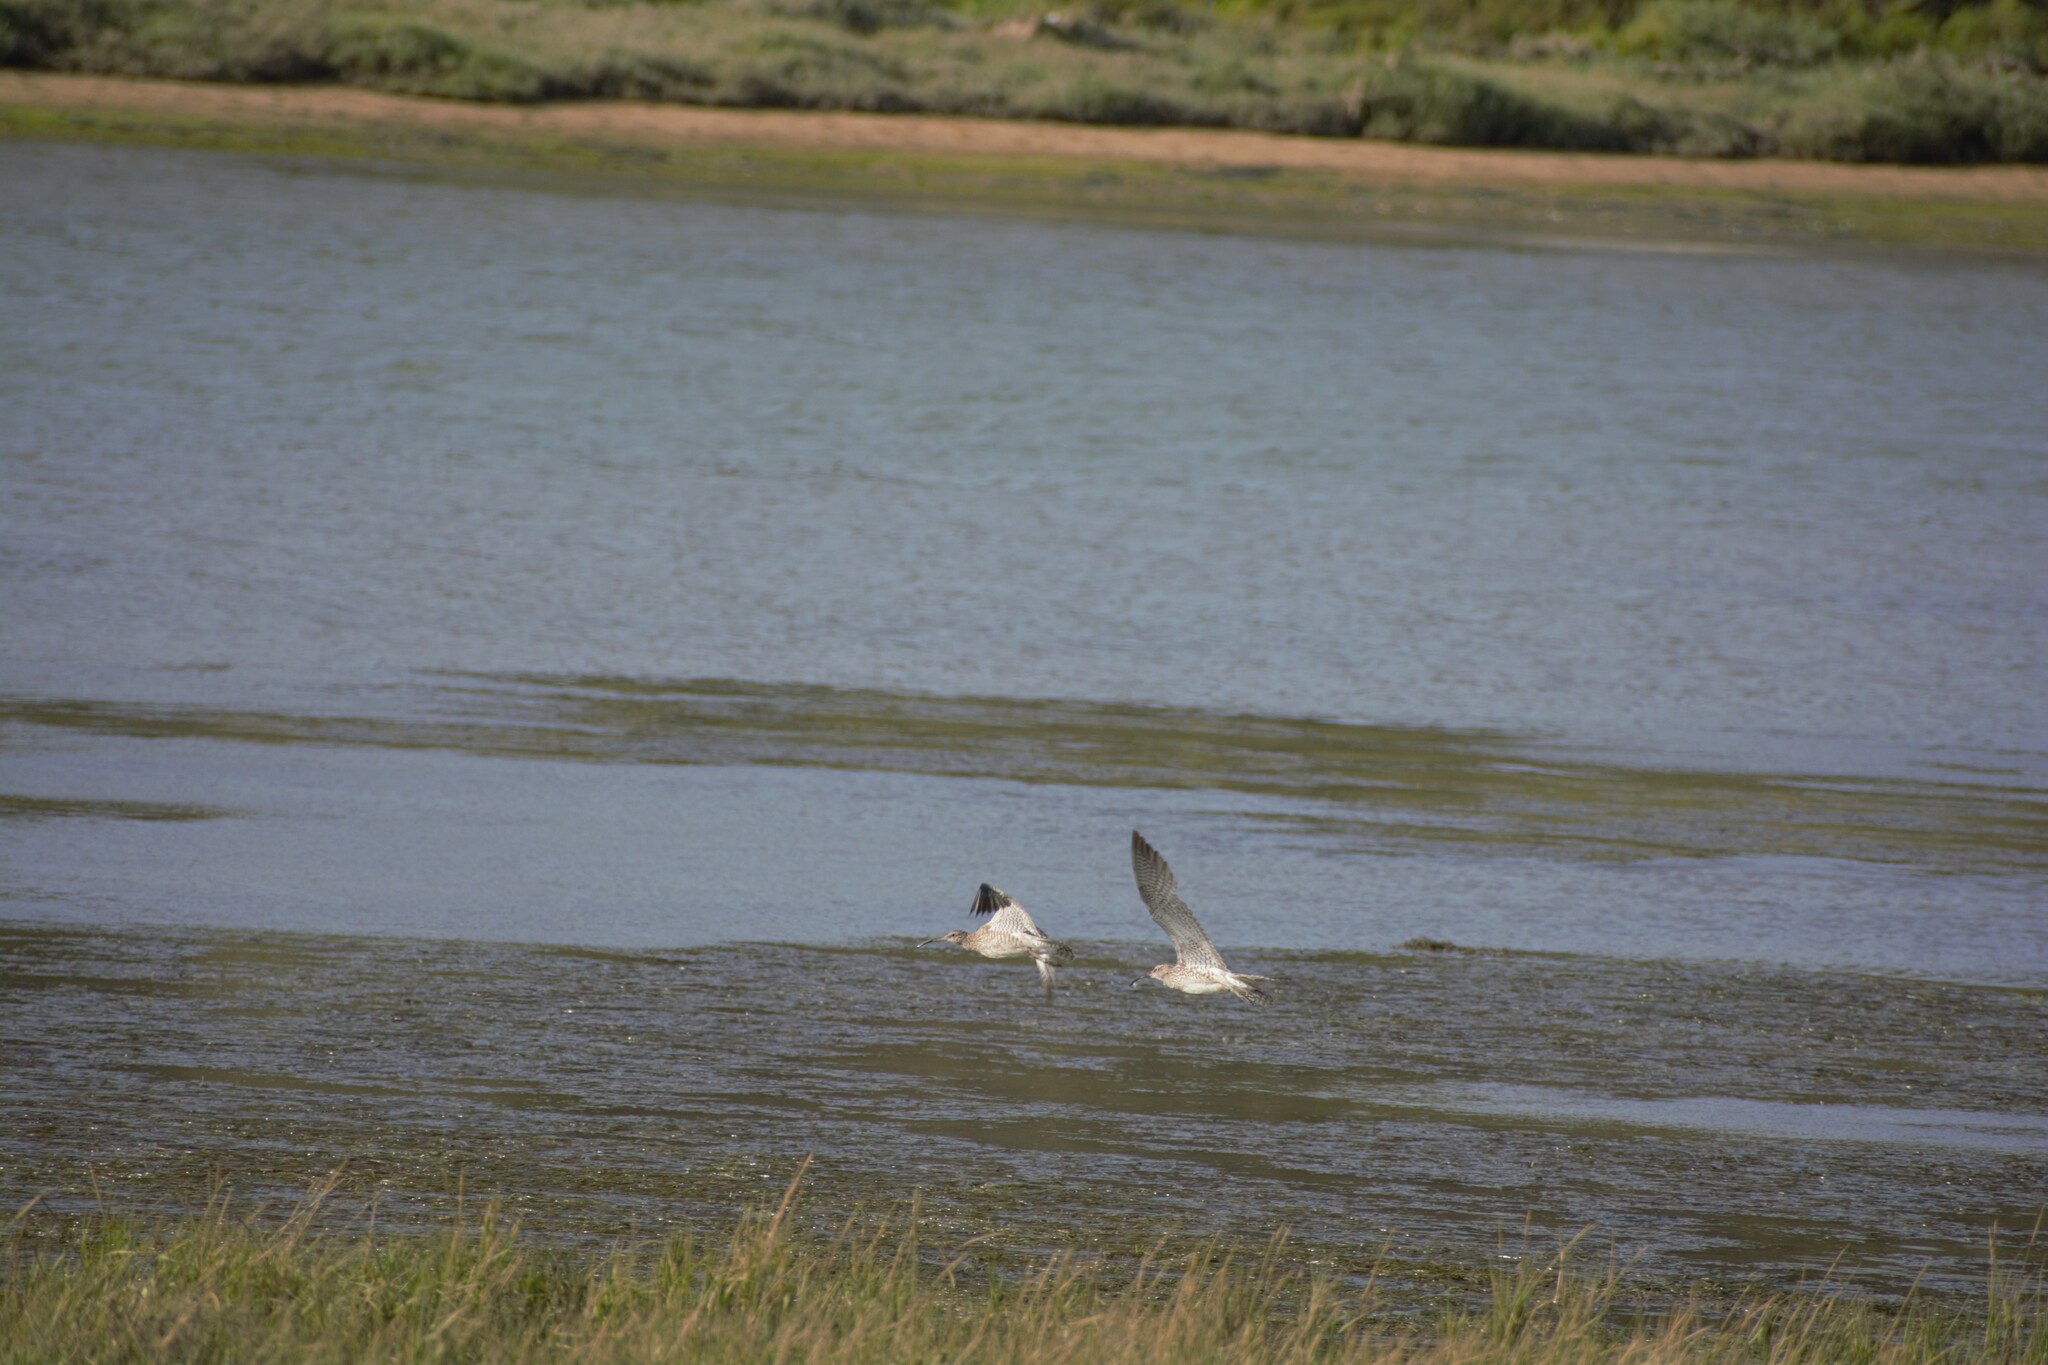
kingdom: Animalia
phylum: Chordata
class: Aves
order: Charadriiformes
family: Scolopacidae
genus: Numenius
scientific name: Numenius phaeopus
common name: Whimbrel
